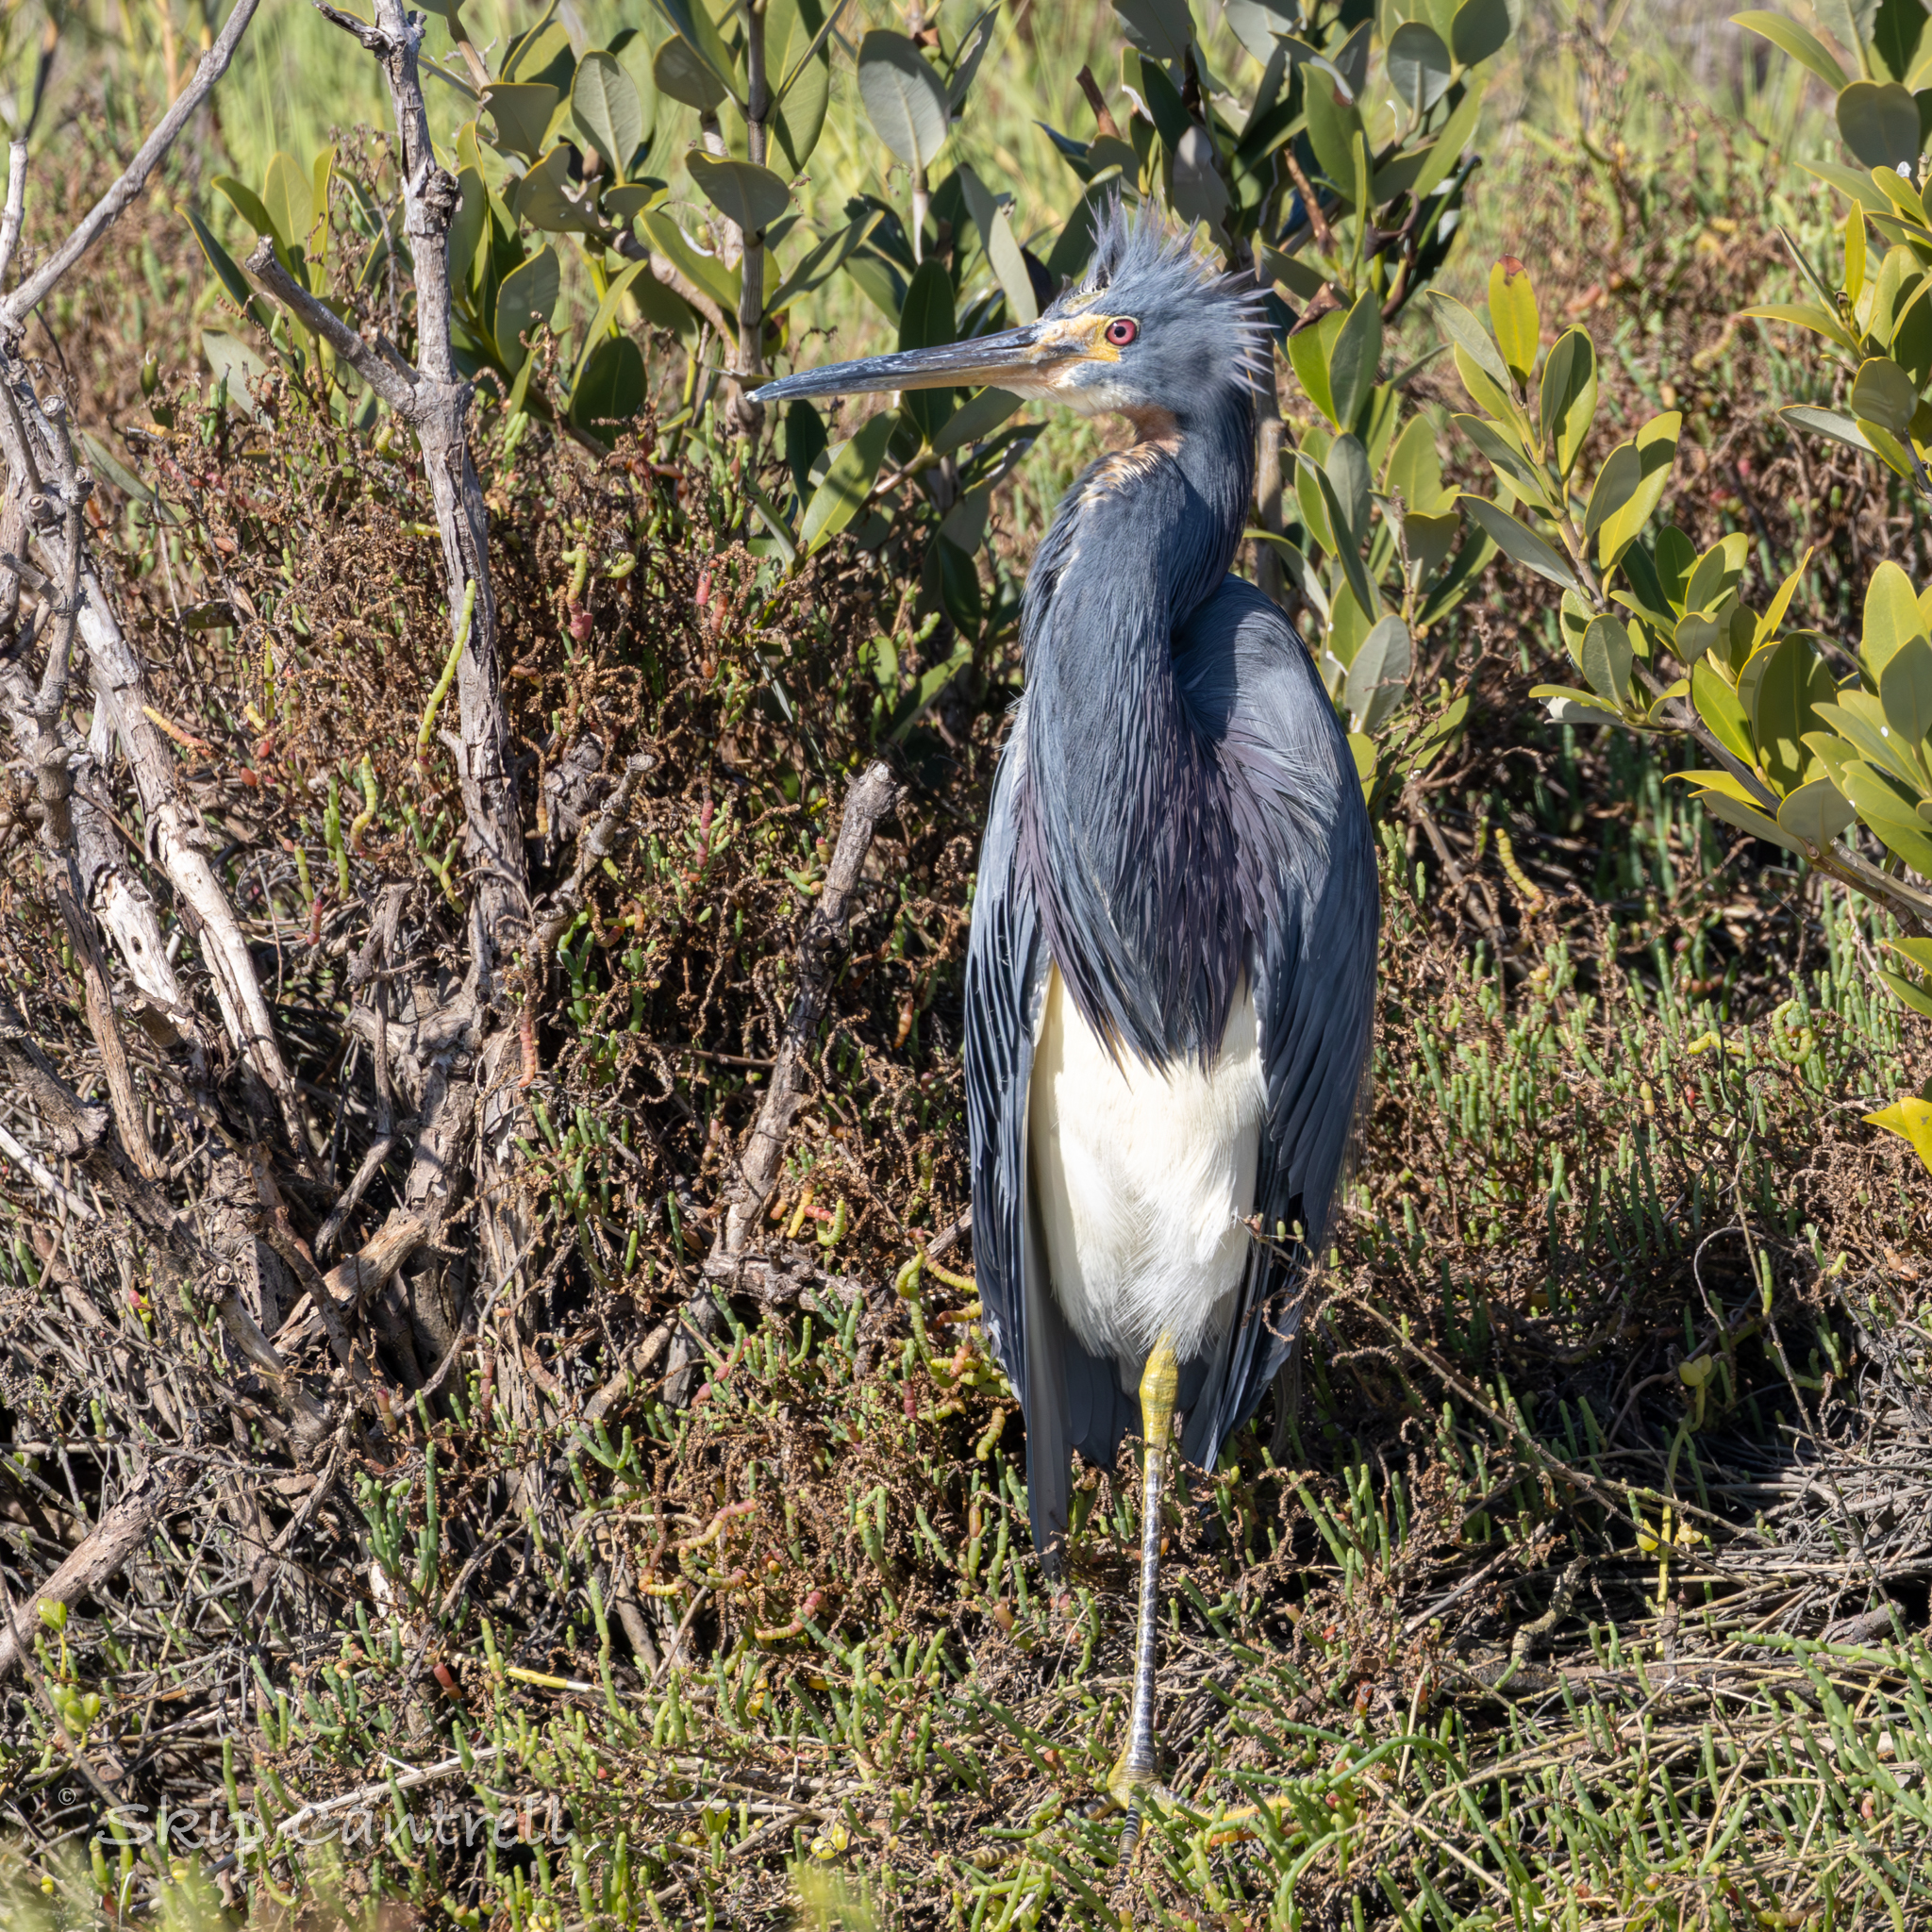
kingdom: Animalia
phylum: Chordata
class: Aves
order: Pelecaniformes
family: Ardeidae
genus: Egretta
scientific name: Egretta tricolor
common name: Tricolored heron
